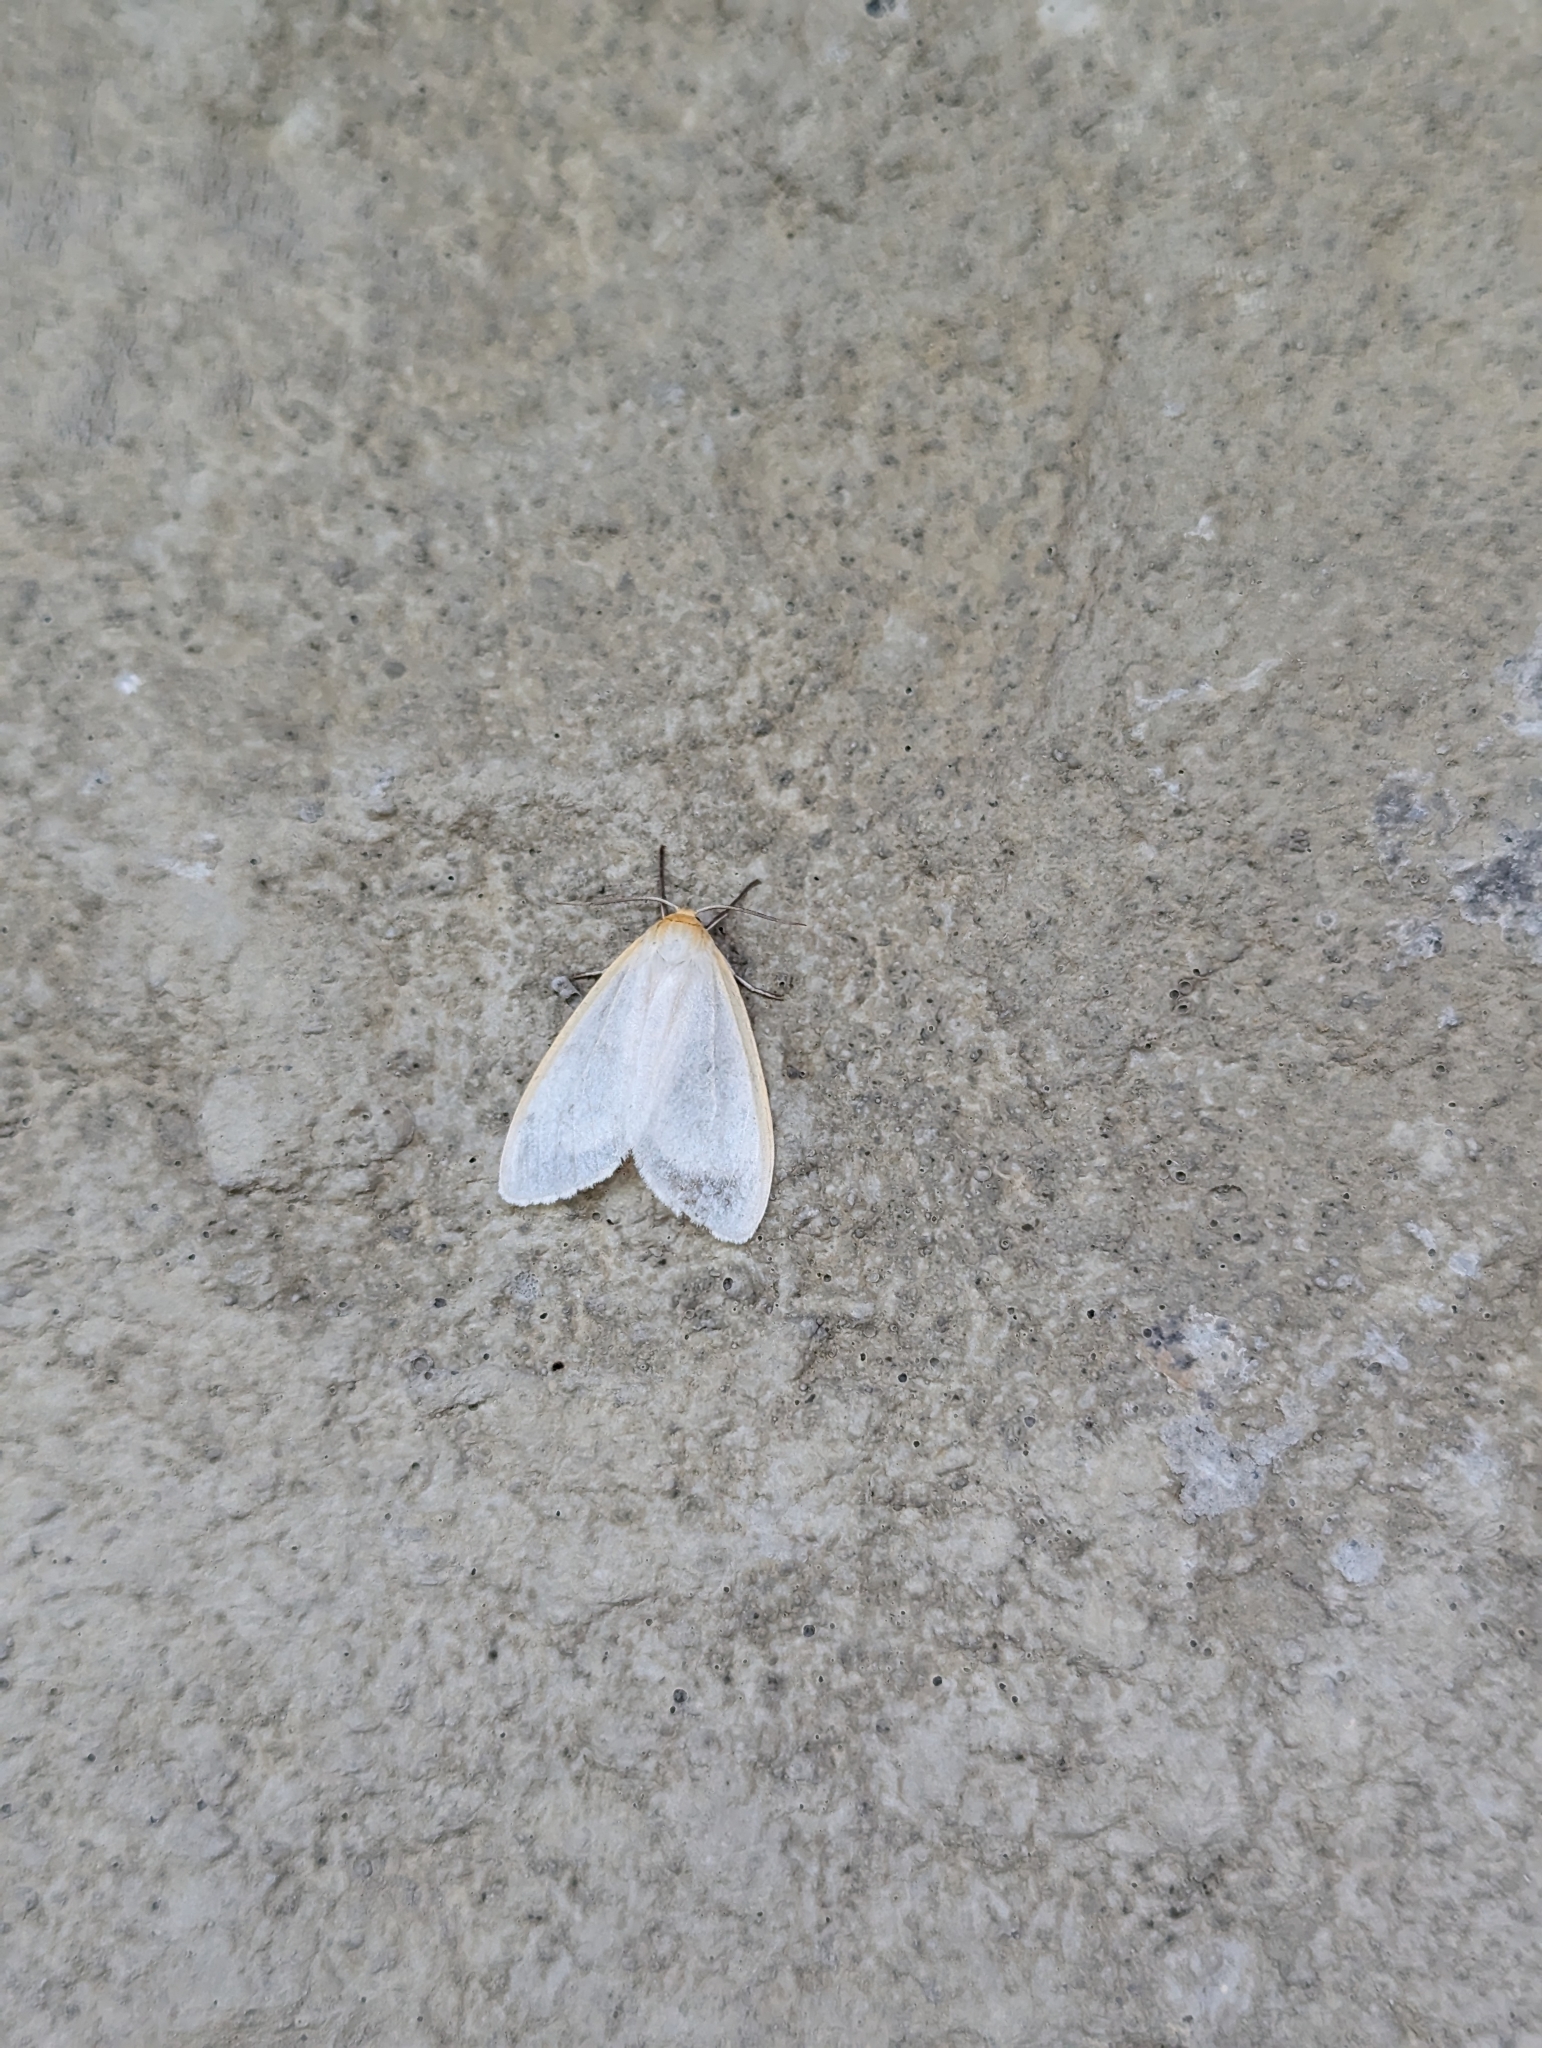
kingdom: Animalia
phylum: Arthropoda
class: Insecta
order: Lepidoptera
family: Erebidae
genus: Cycnia
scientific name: Cycnia tenera
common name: Delicate cycnia moth
